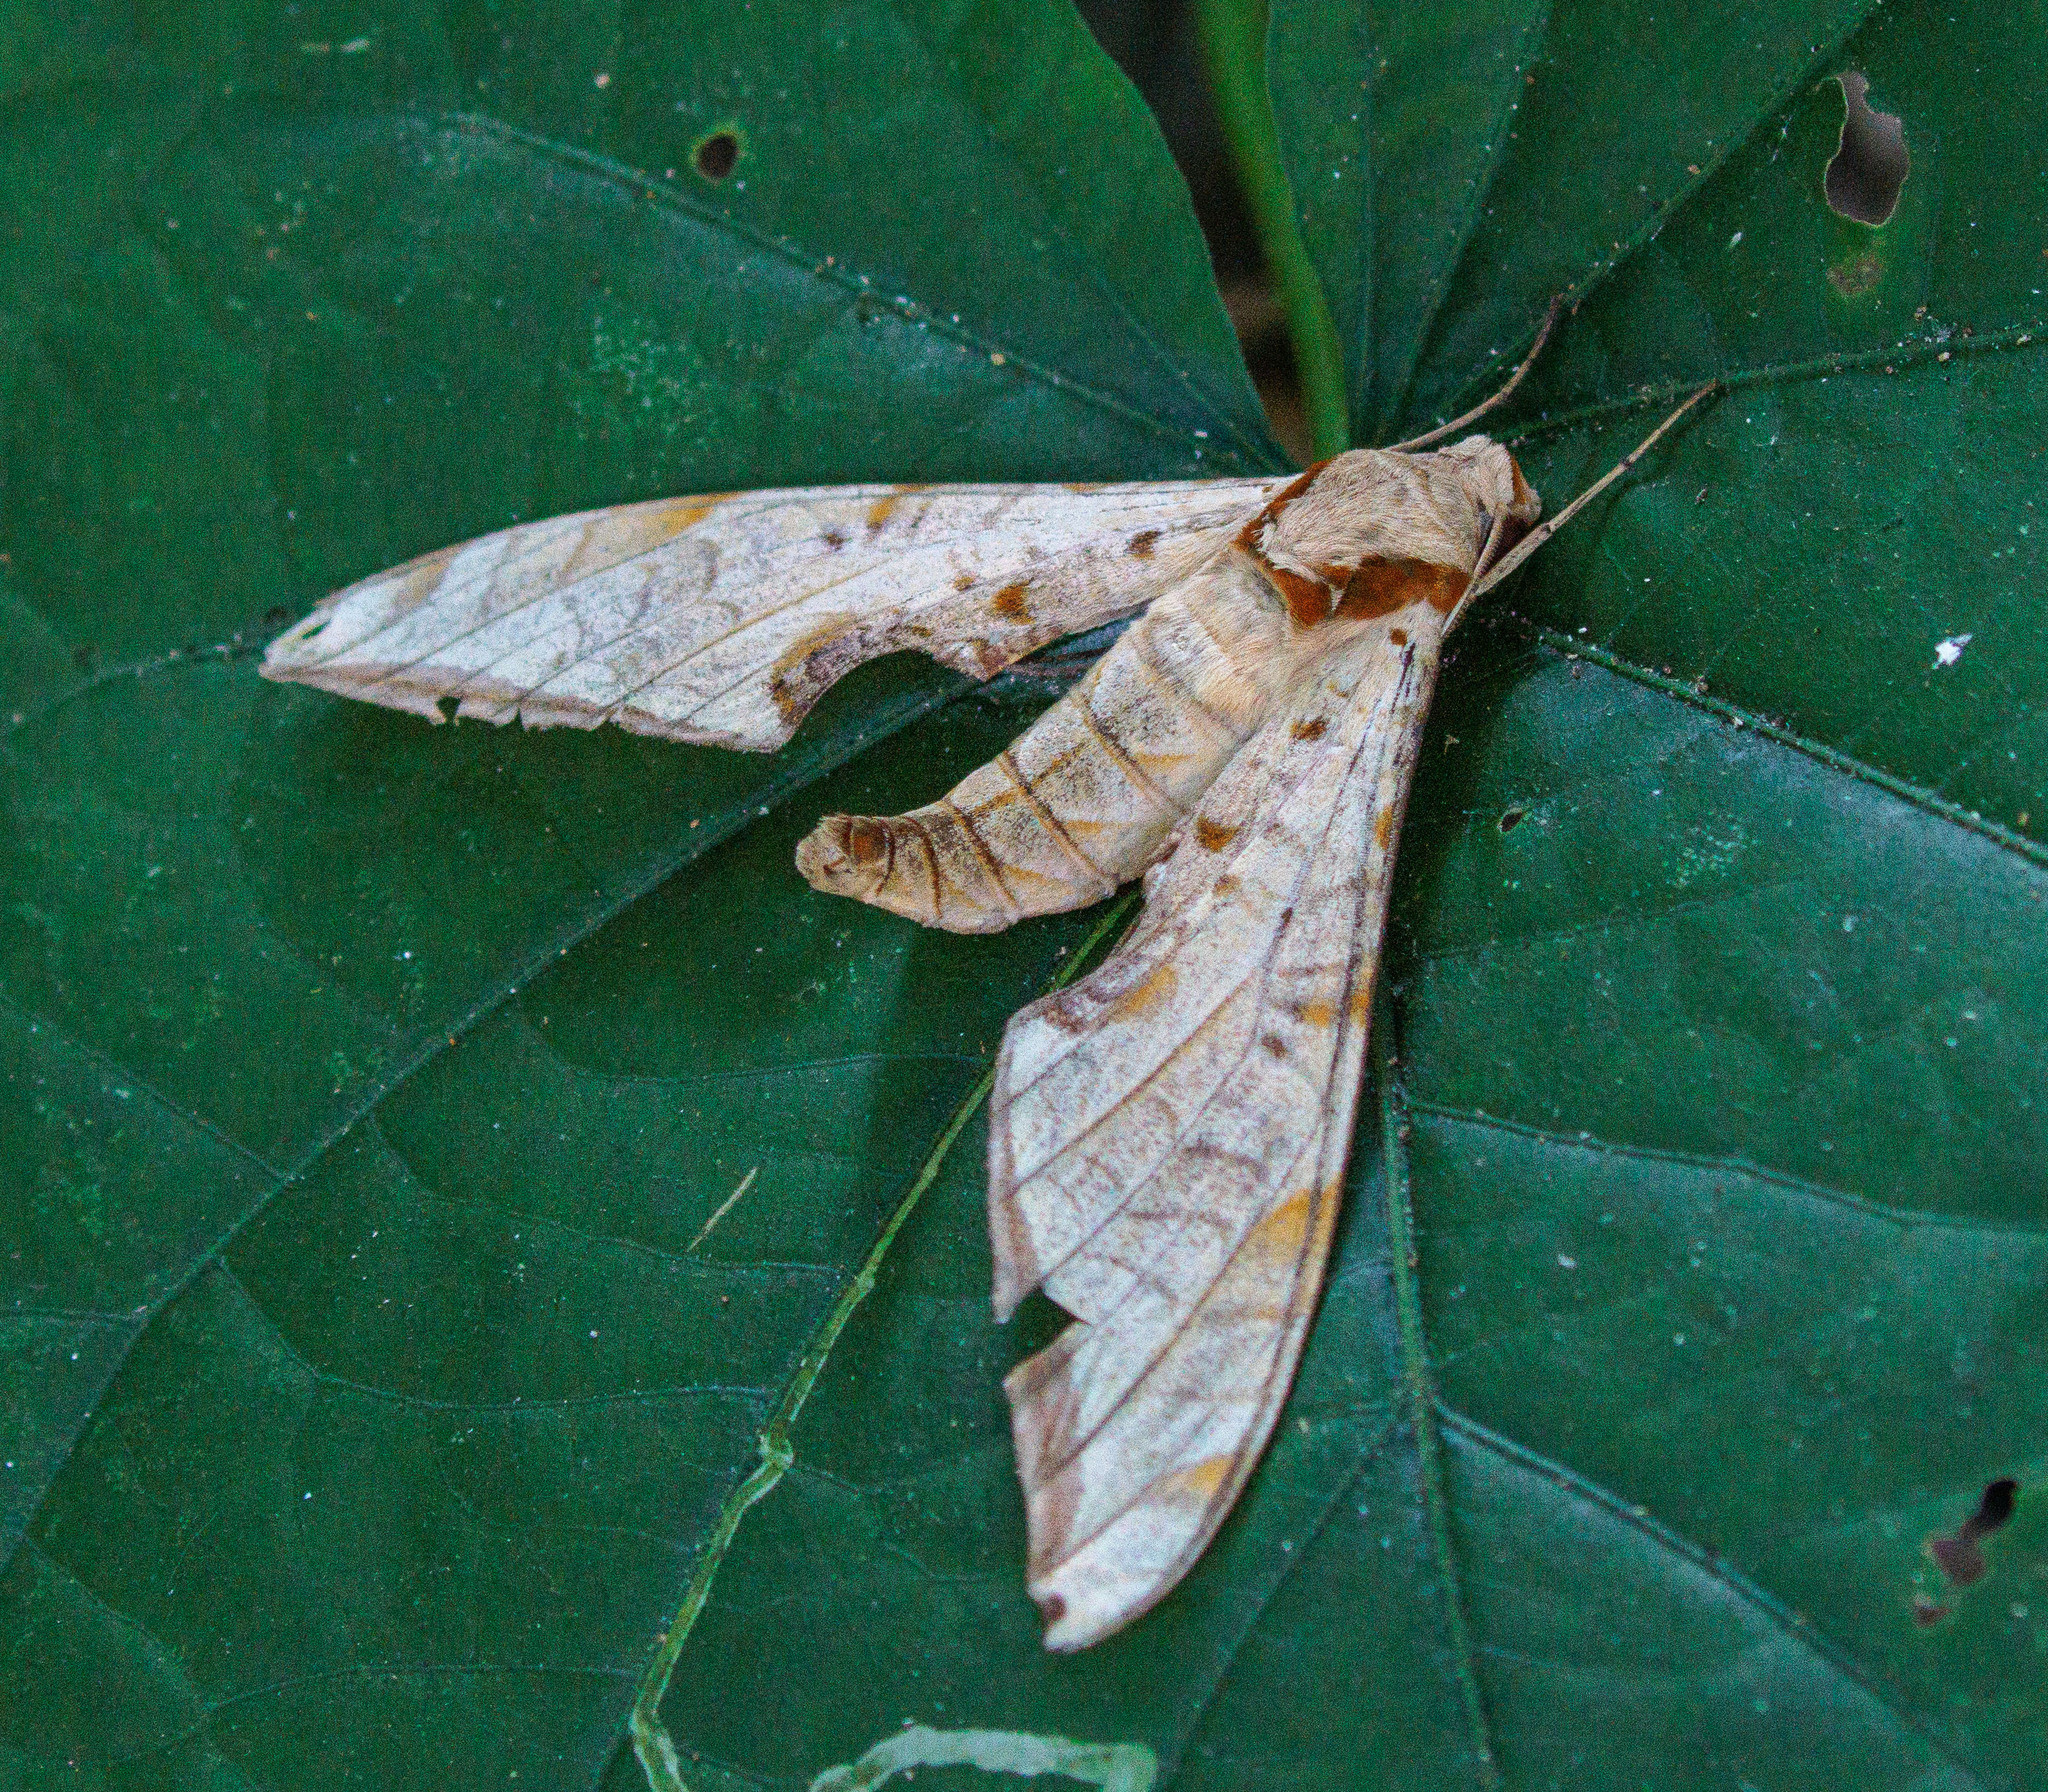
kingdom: Animalia
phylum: Arthropoda
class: Insecta
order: Lepidoptera
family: Sphingidae
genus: Protambulyx
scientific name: Protambulyx strigilis
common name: Streaked sphinx
